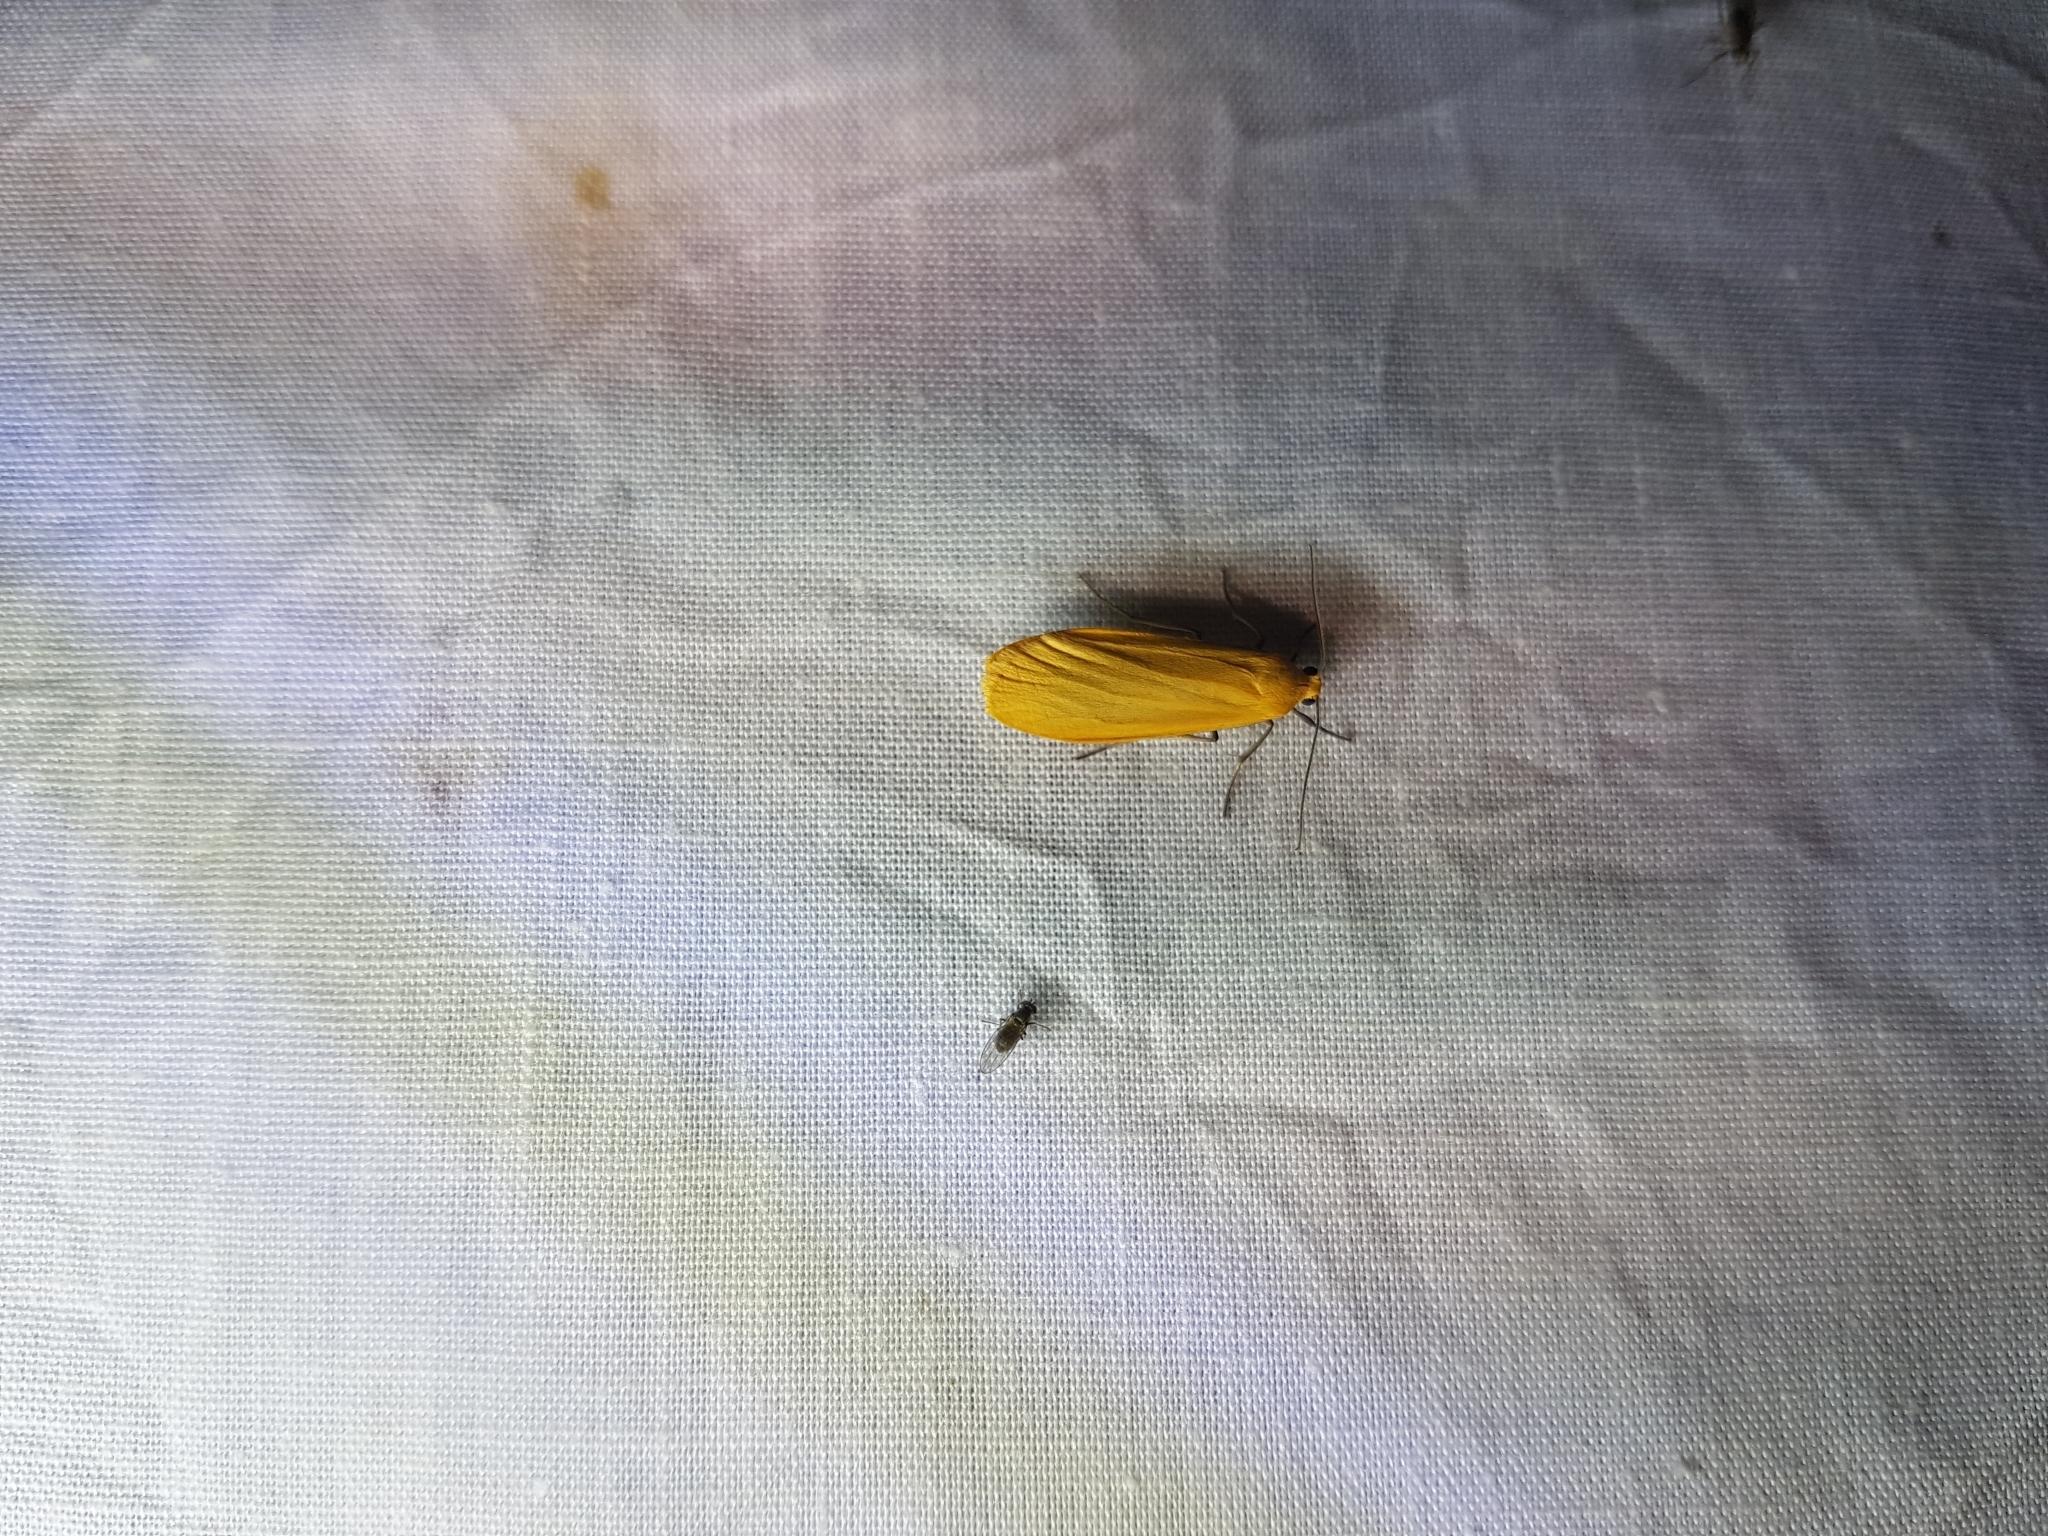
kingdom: Animalia
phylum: Arthropoda
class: Insecta
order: Lepidoptera
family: Erebidae
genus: Wittia
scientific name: Wittia sororcula
